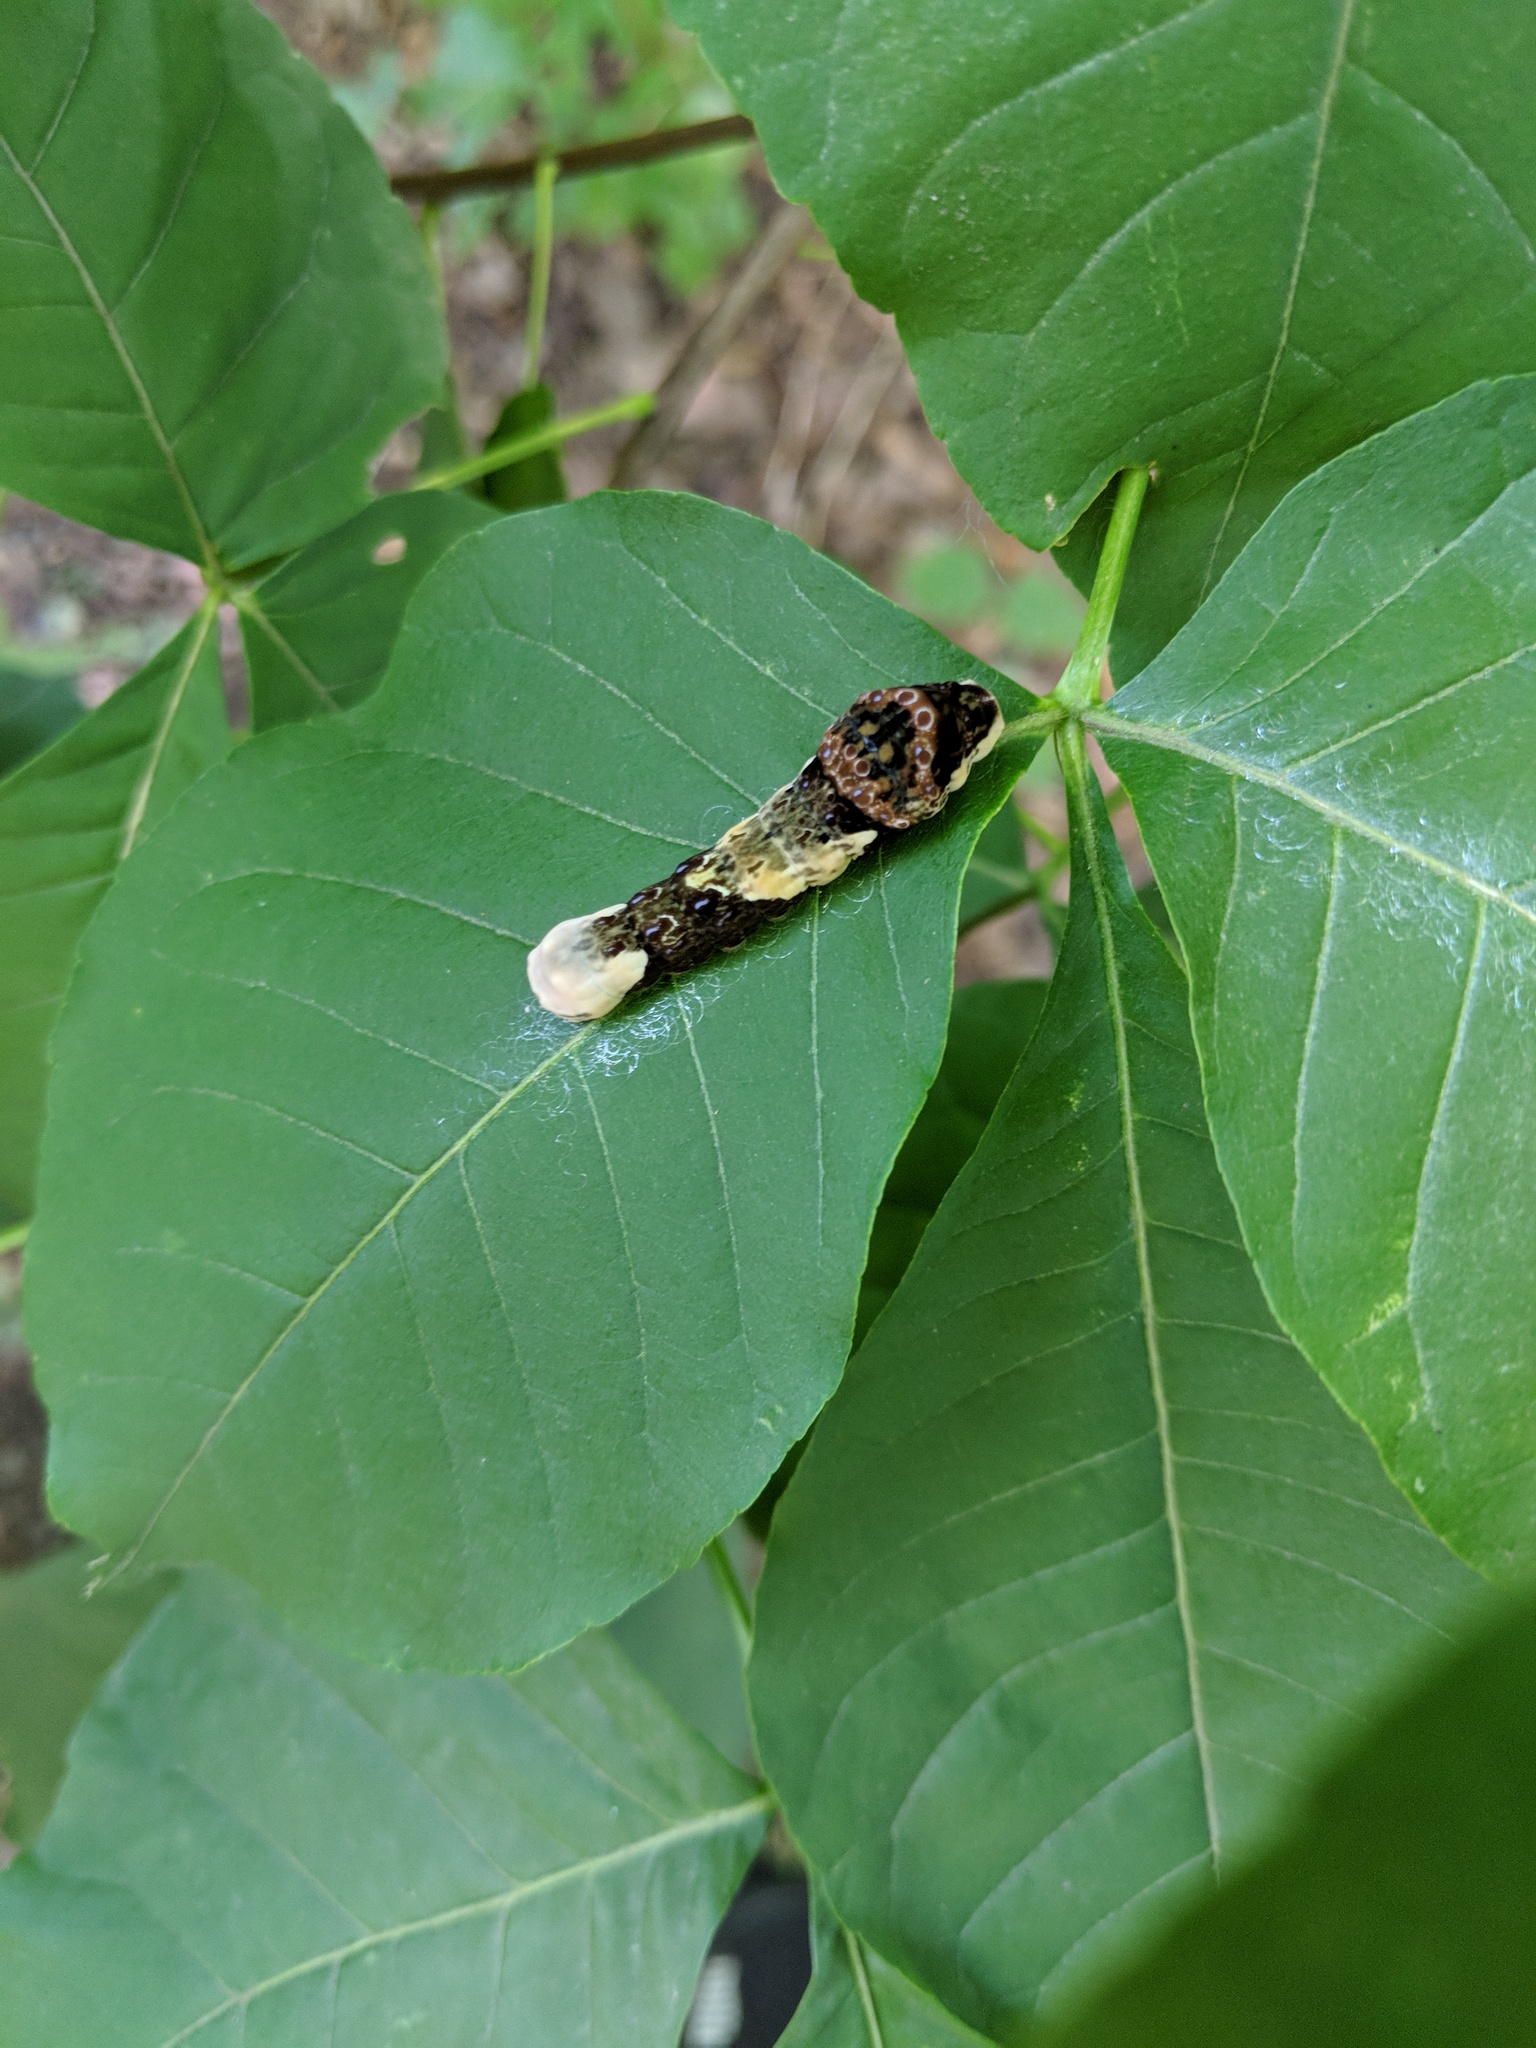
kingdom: Animalia
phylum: Arthropoda
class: Insecta
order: Lepidoptera
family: Papilionidae
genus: Papilio
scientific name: Papilio cresphontes
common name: Giant swallowtail
